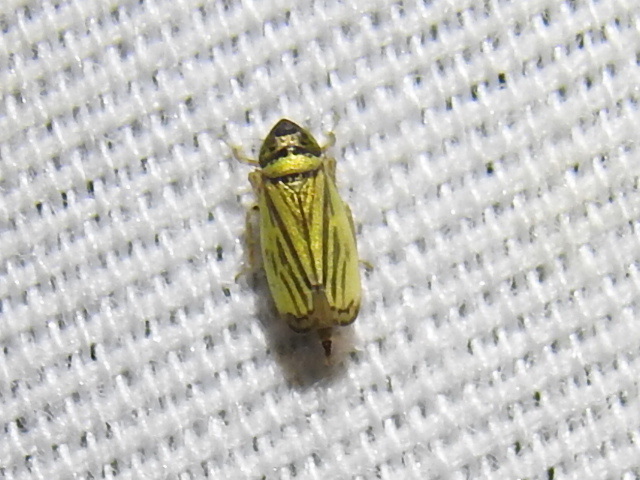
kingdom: Animalia
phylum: Arthropoda
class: Insecta
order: Hemiptera
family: Cicadellidae
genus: Stirellus
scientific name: Stirellus bicolor
